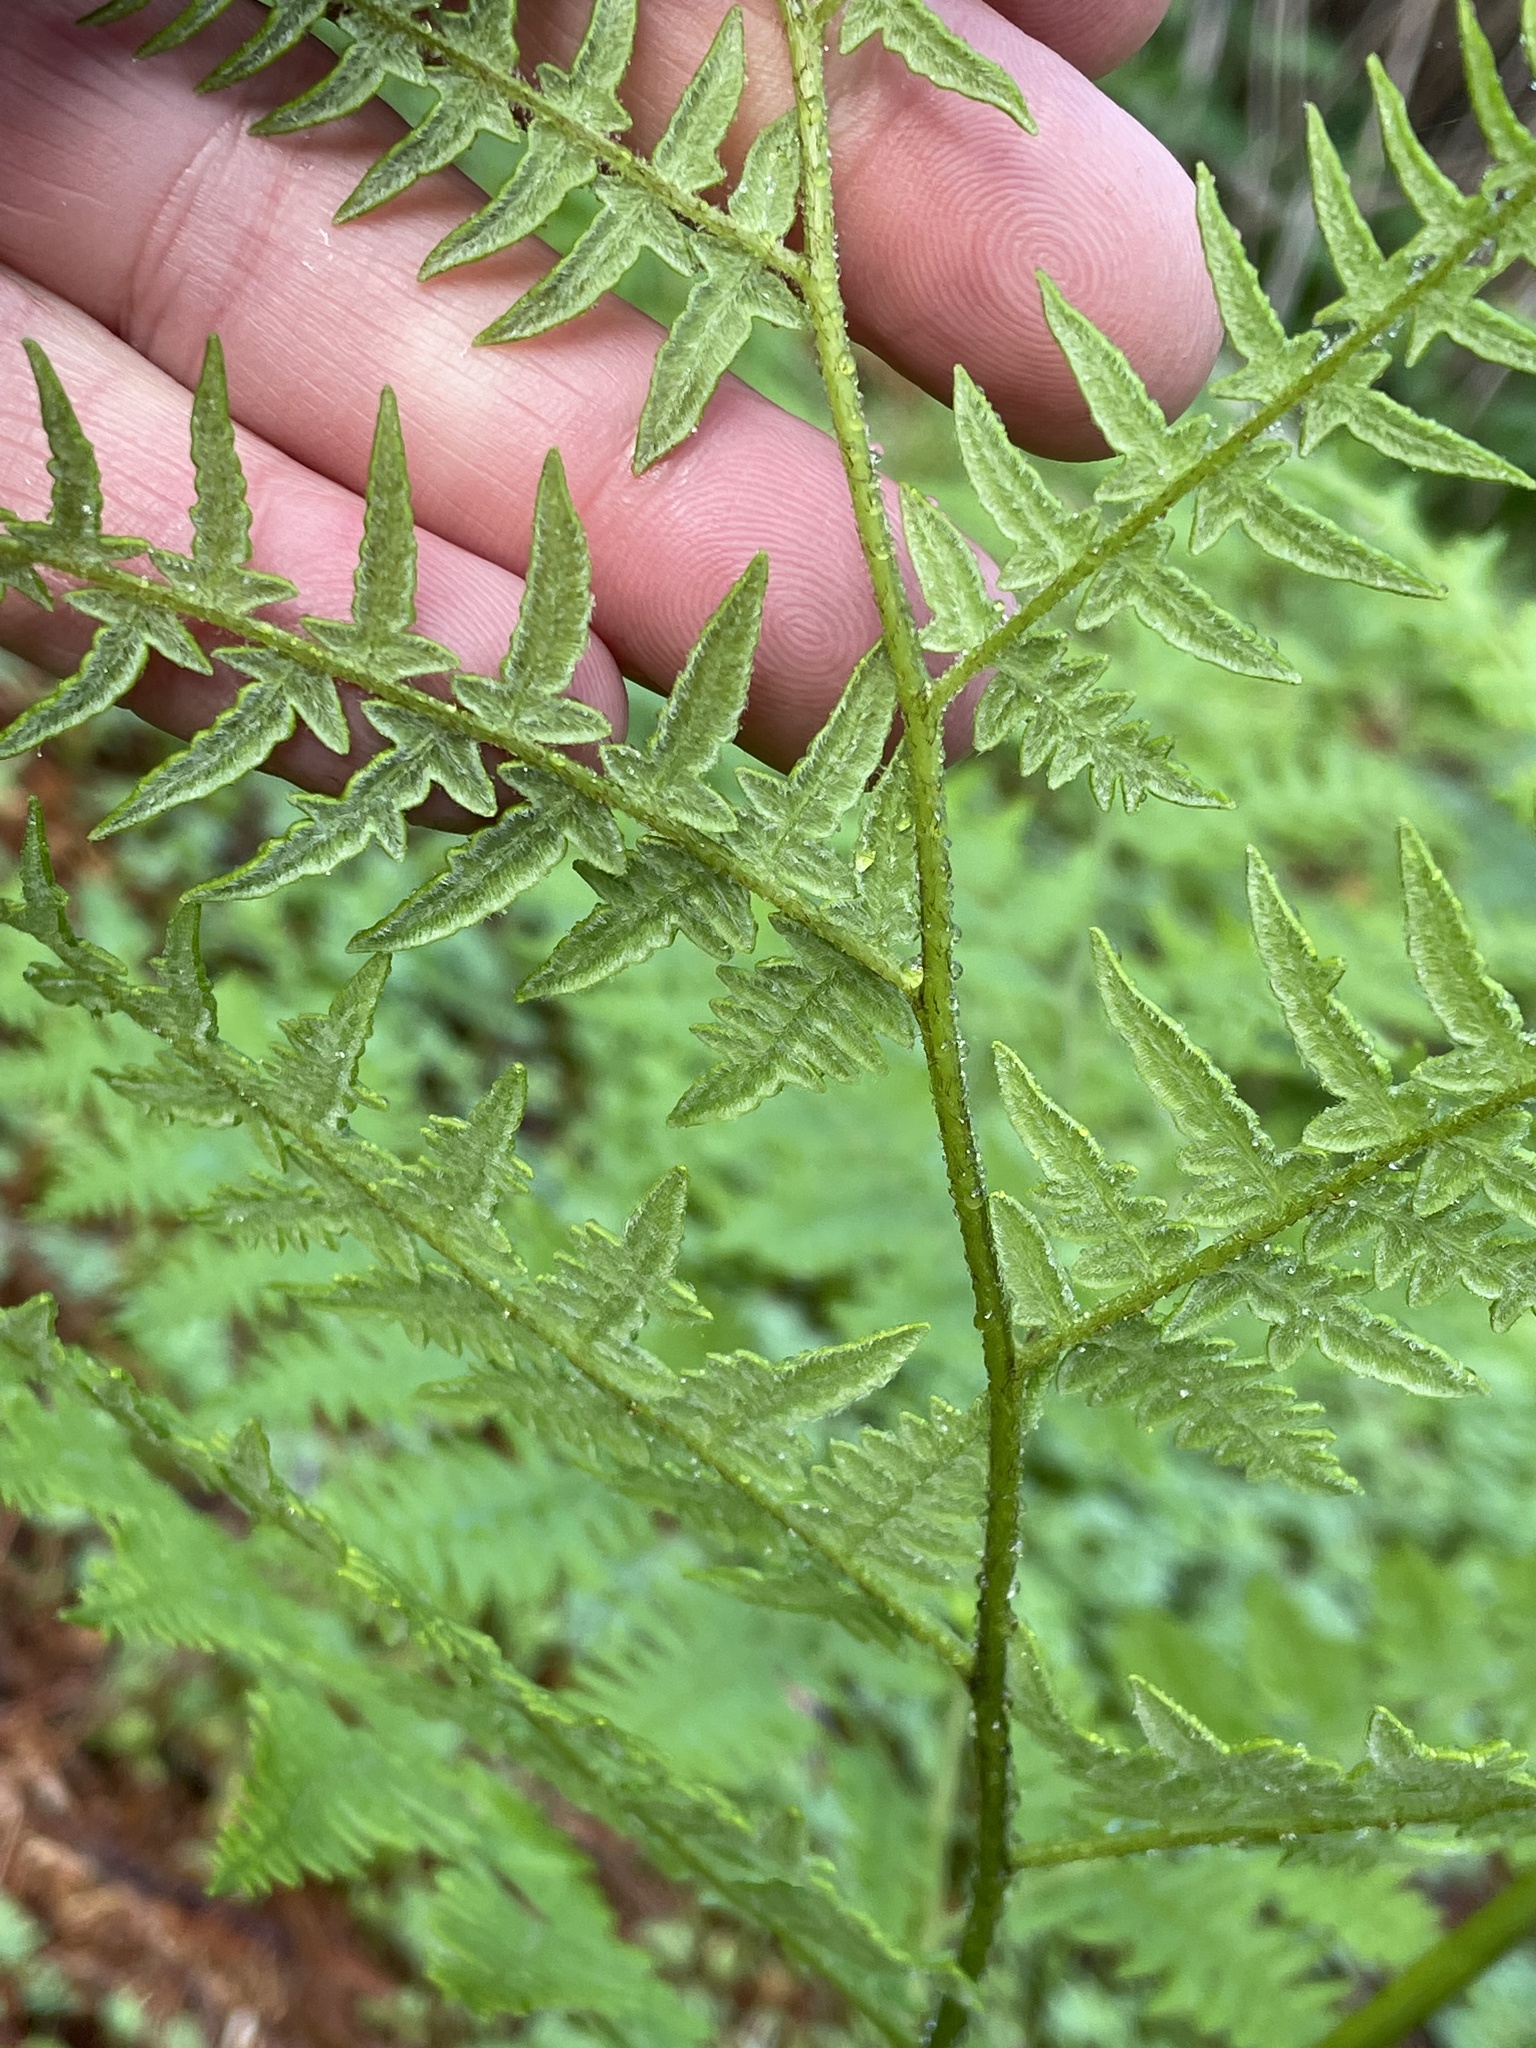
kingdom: Plantae
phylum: Tracheophyta
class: Polypodiopsida
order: Polypodiales
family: Dennstaedtiaceae
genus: Pteridium
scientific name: Pteridium aquilinum
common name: Bracken
